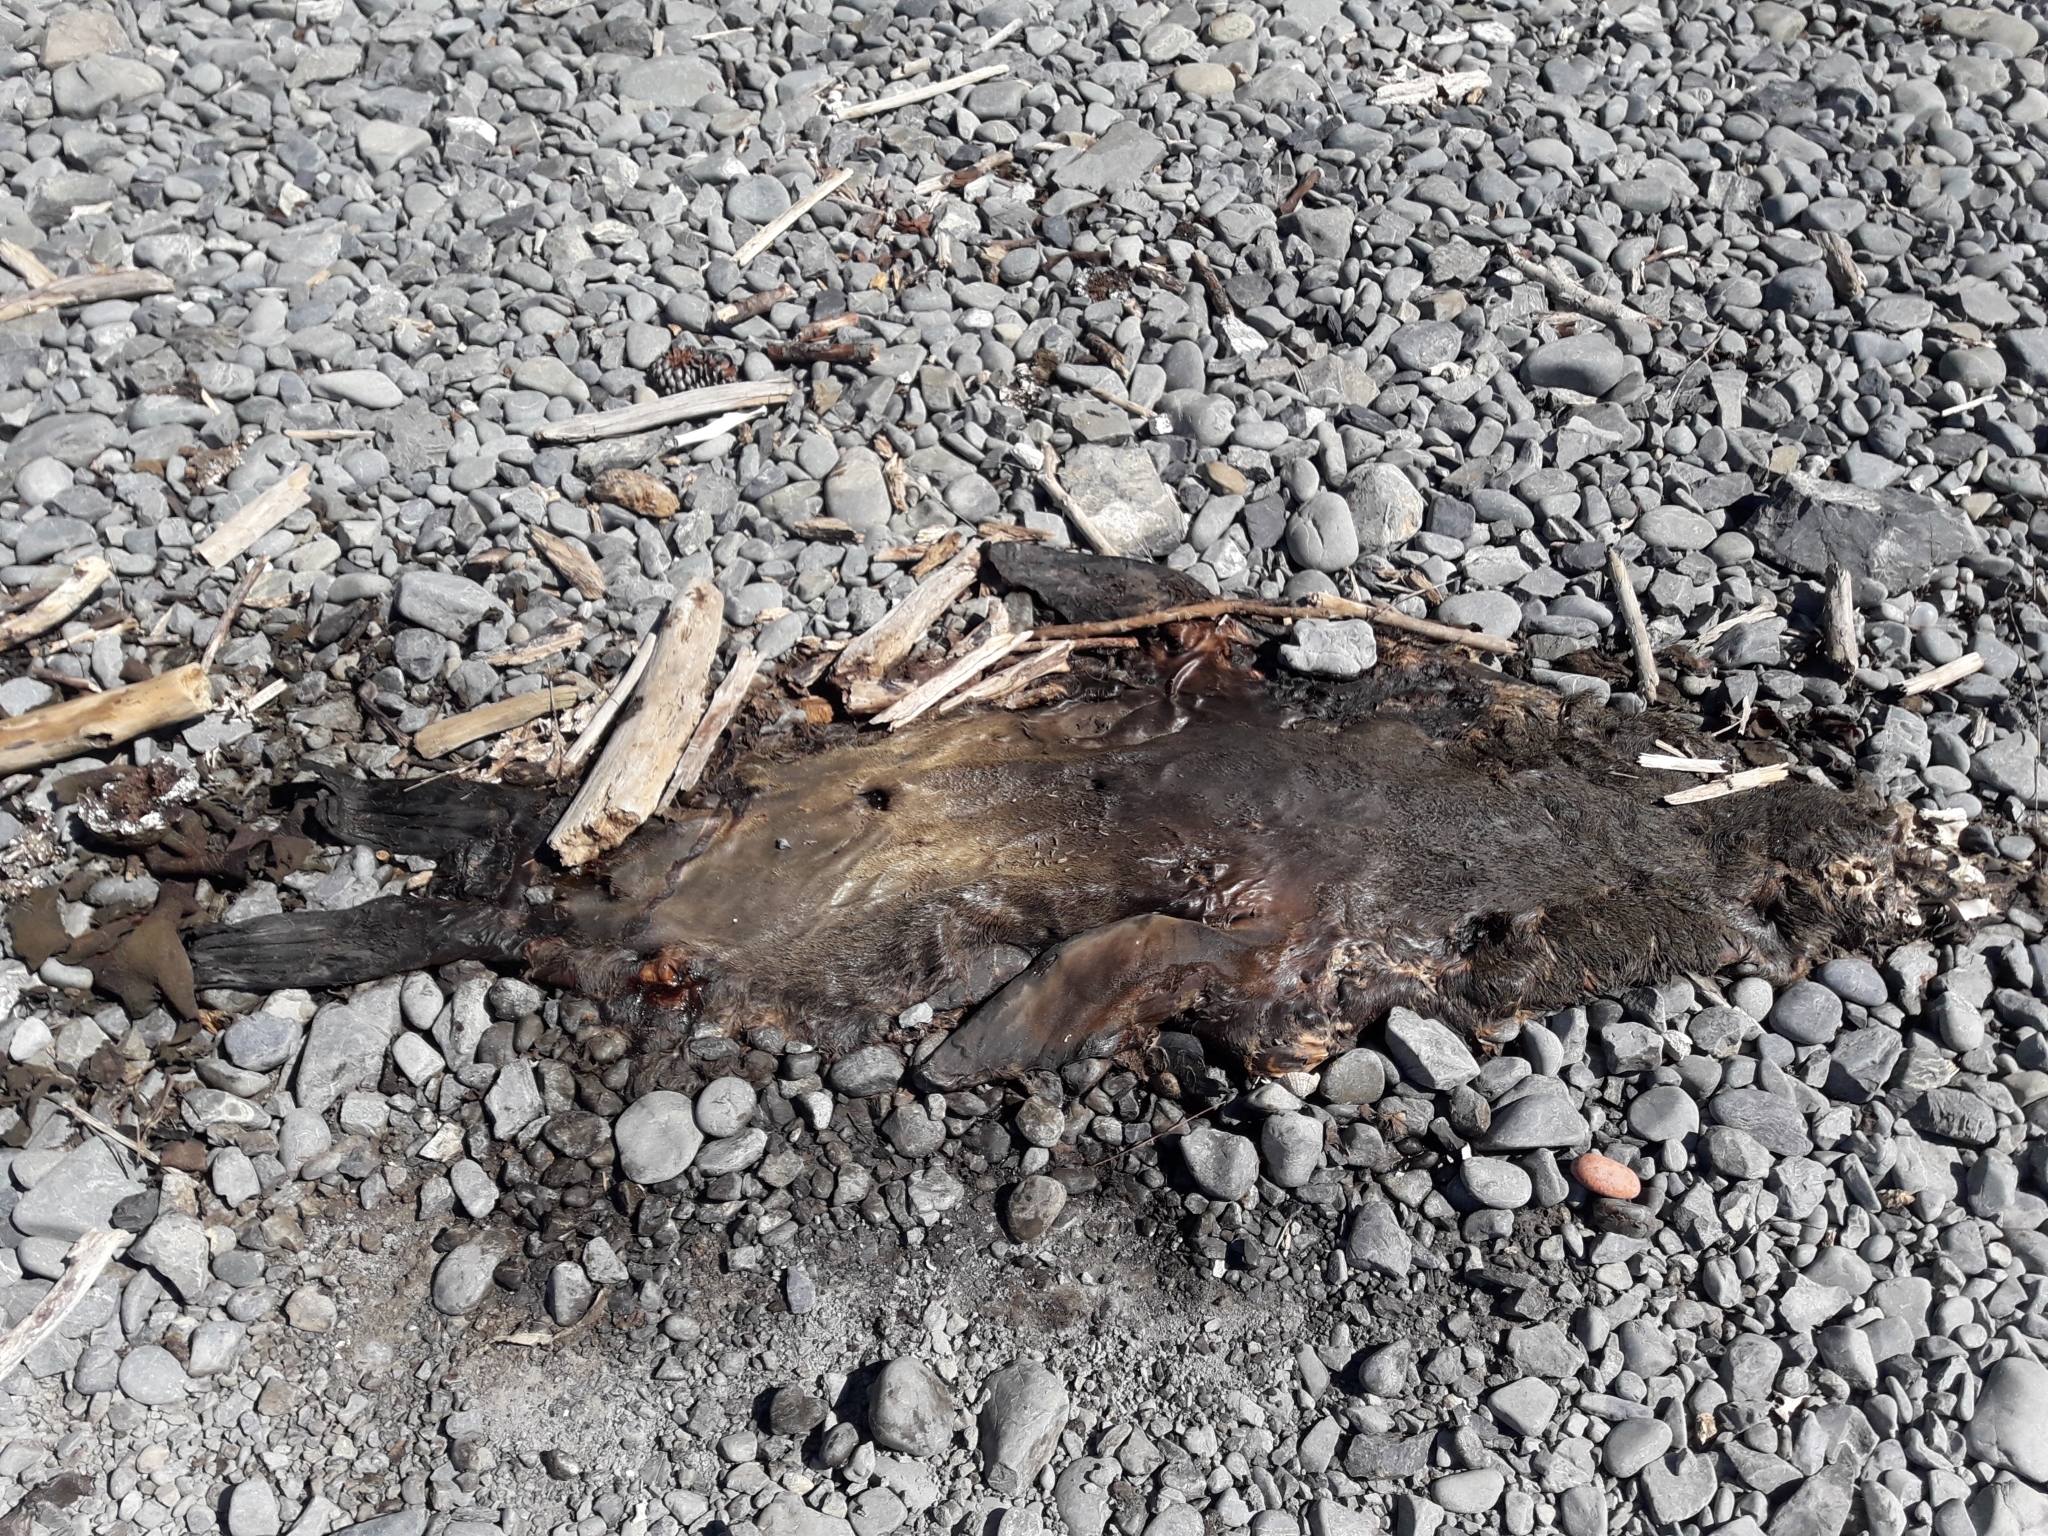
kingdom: Animalia
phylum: Chordata
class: Mammalia
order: Carnivora
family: Otariidae
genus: Arctocephalus
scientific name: Arctocephalus forsteri
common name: New zealand fur seal
